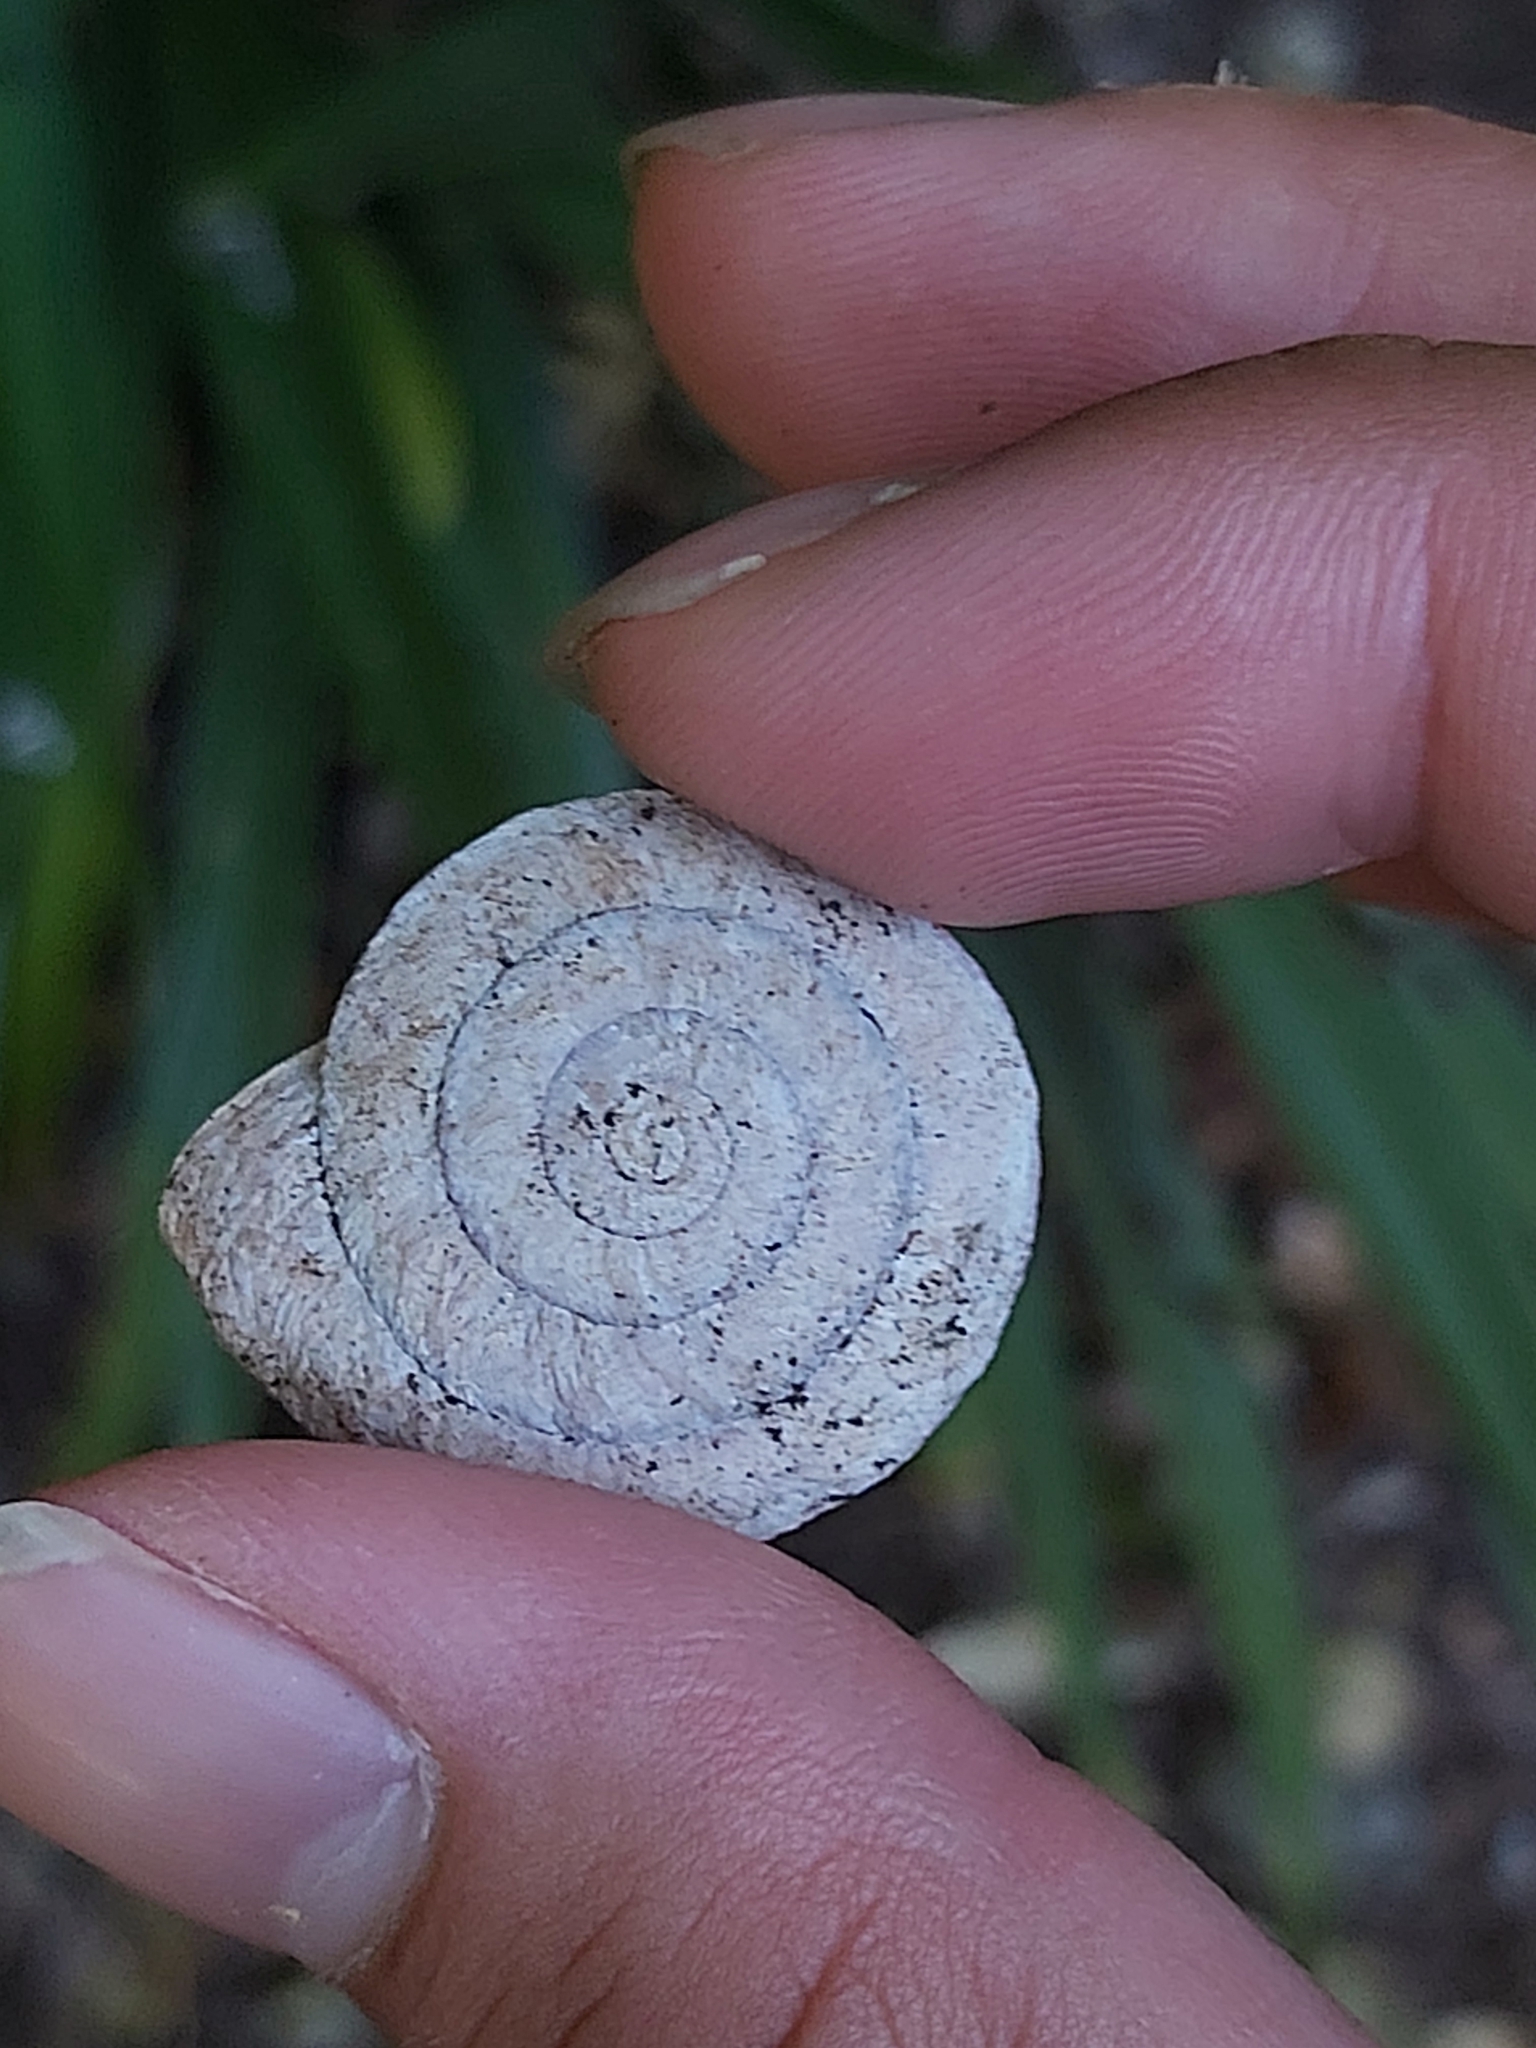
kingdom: Animalia
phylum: Mollusca
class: Gastropoda
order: Stylommatophora
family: Camaenidae
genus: Jacksonena
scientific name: Jacksonena rudis
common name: Atherton tableland keeled snail
